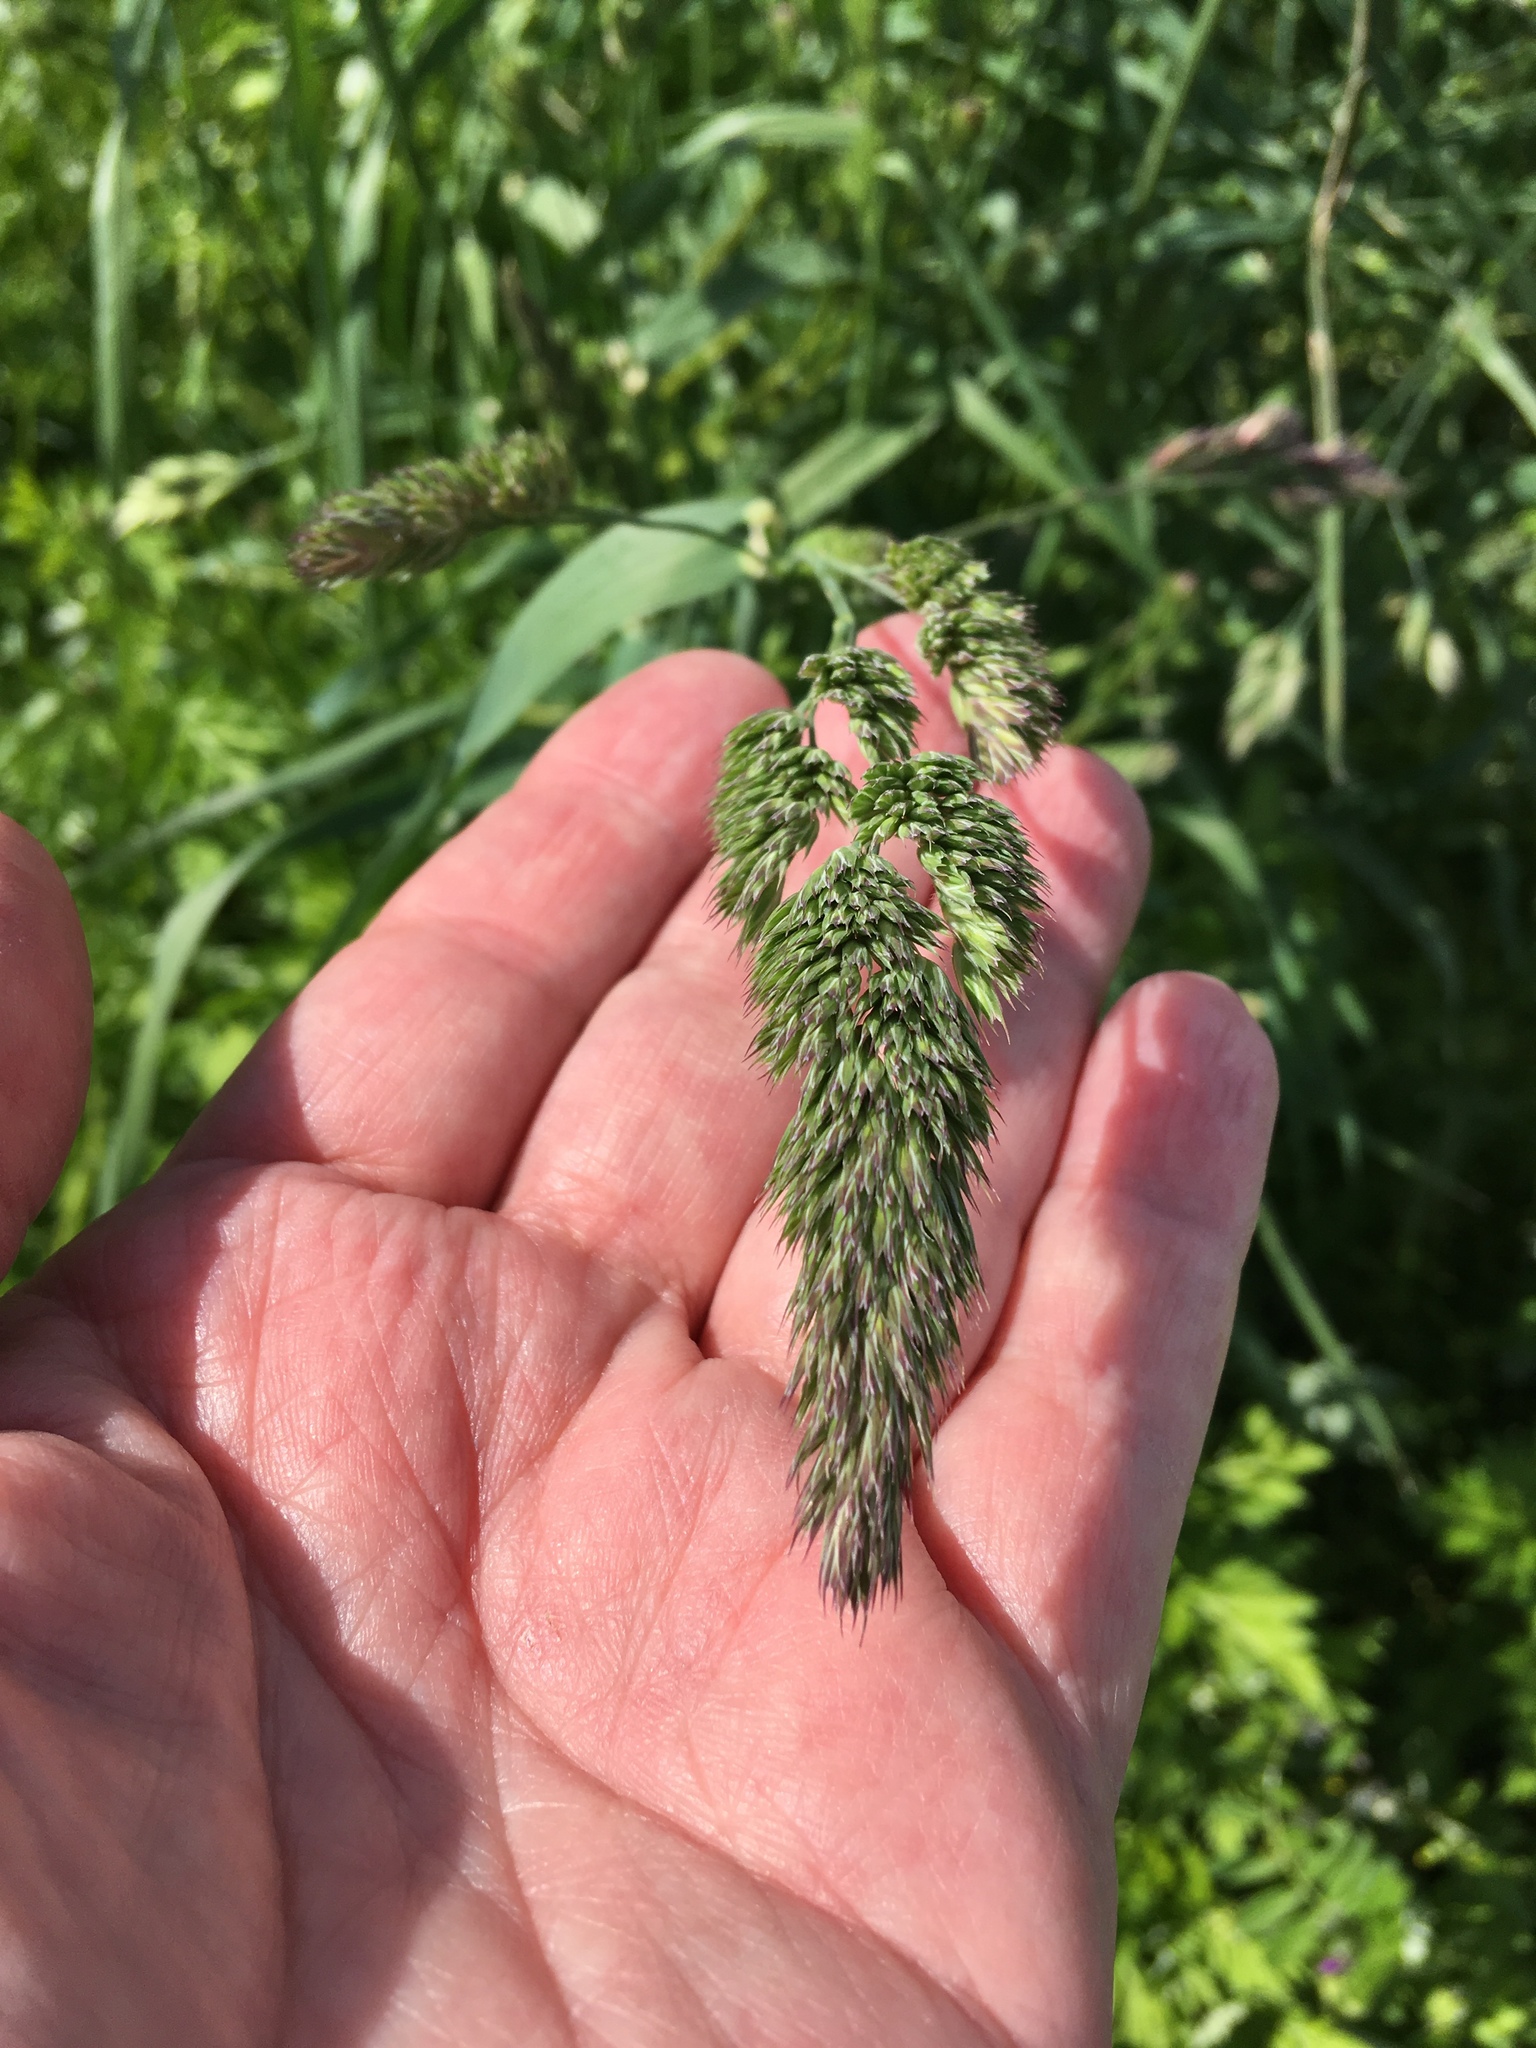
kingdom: Plantae
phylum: Tracheophyta
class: Liliopsida
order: Poales
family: Poaceae
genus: Dactylis
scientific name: Dactylis glomerata
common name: Orchardgrass
